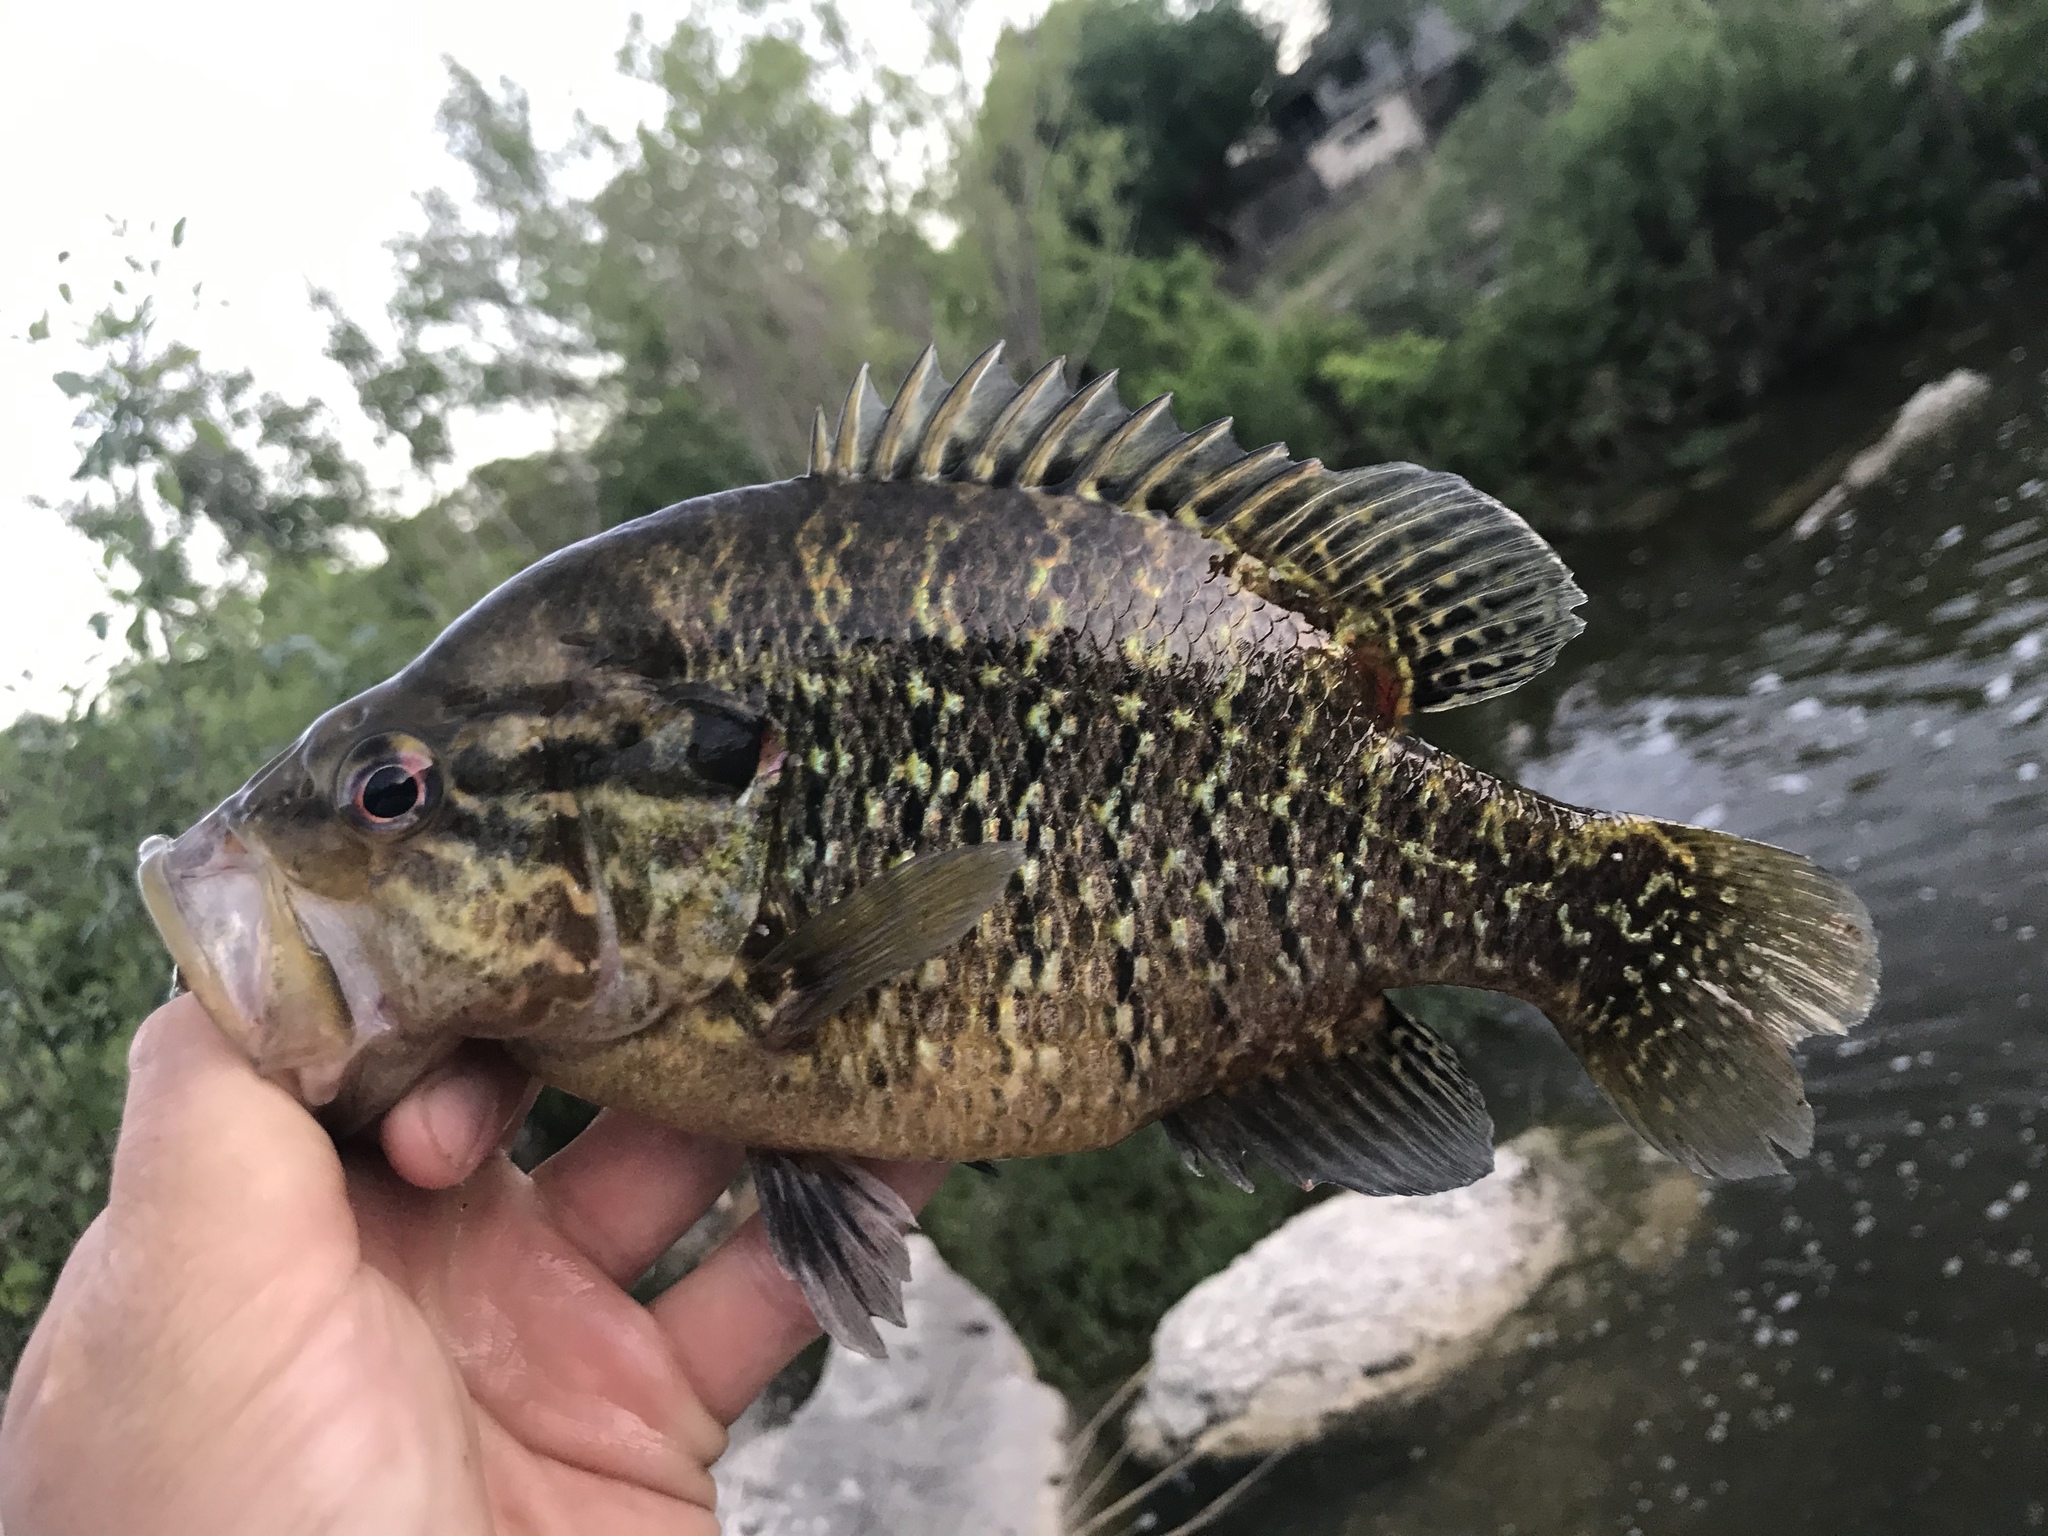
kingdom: Animalia
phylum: Chordata
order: Perciformes
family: Centrarchidae
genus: Lepomis
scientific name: Lepomis gulosus
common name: Warmouth
